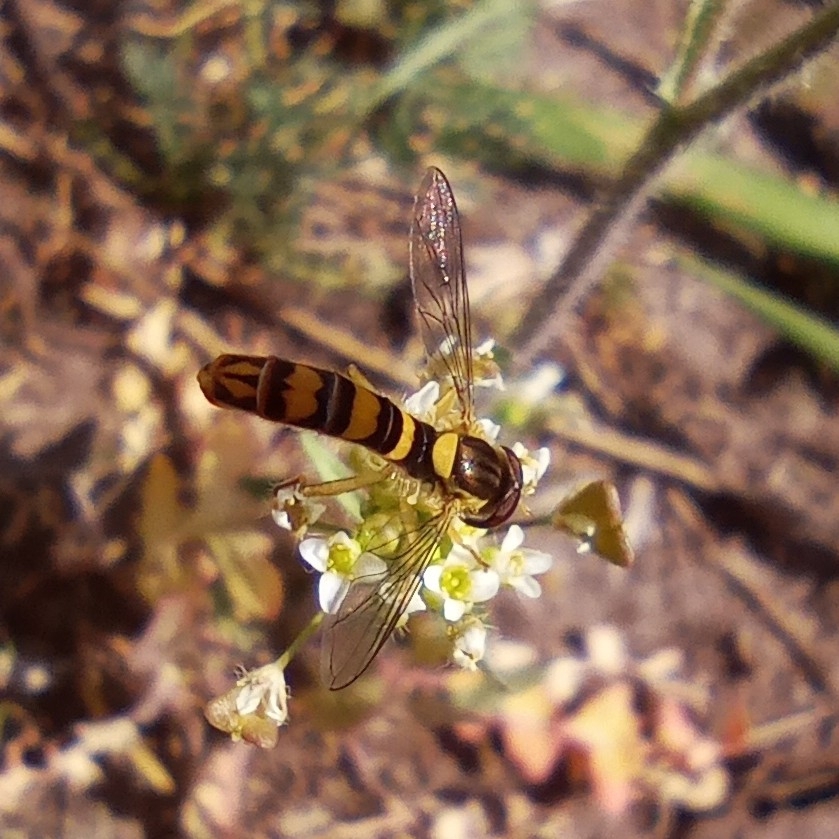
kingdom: Animalia
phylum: Arthropoda
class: Insecta
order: Diptera
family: Syrphidae
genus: Sphaerophoria
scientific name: Sphaerophoria scripta
